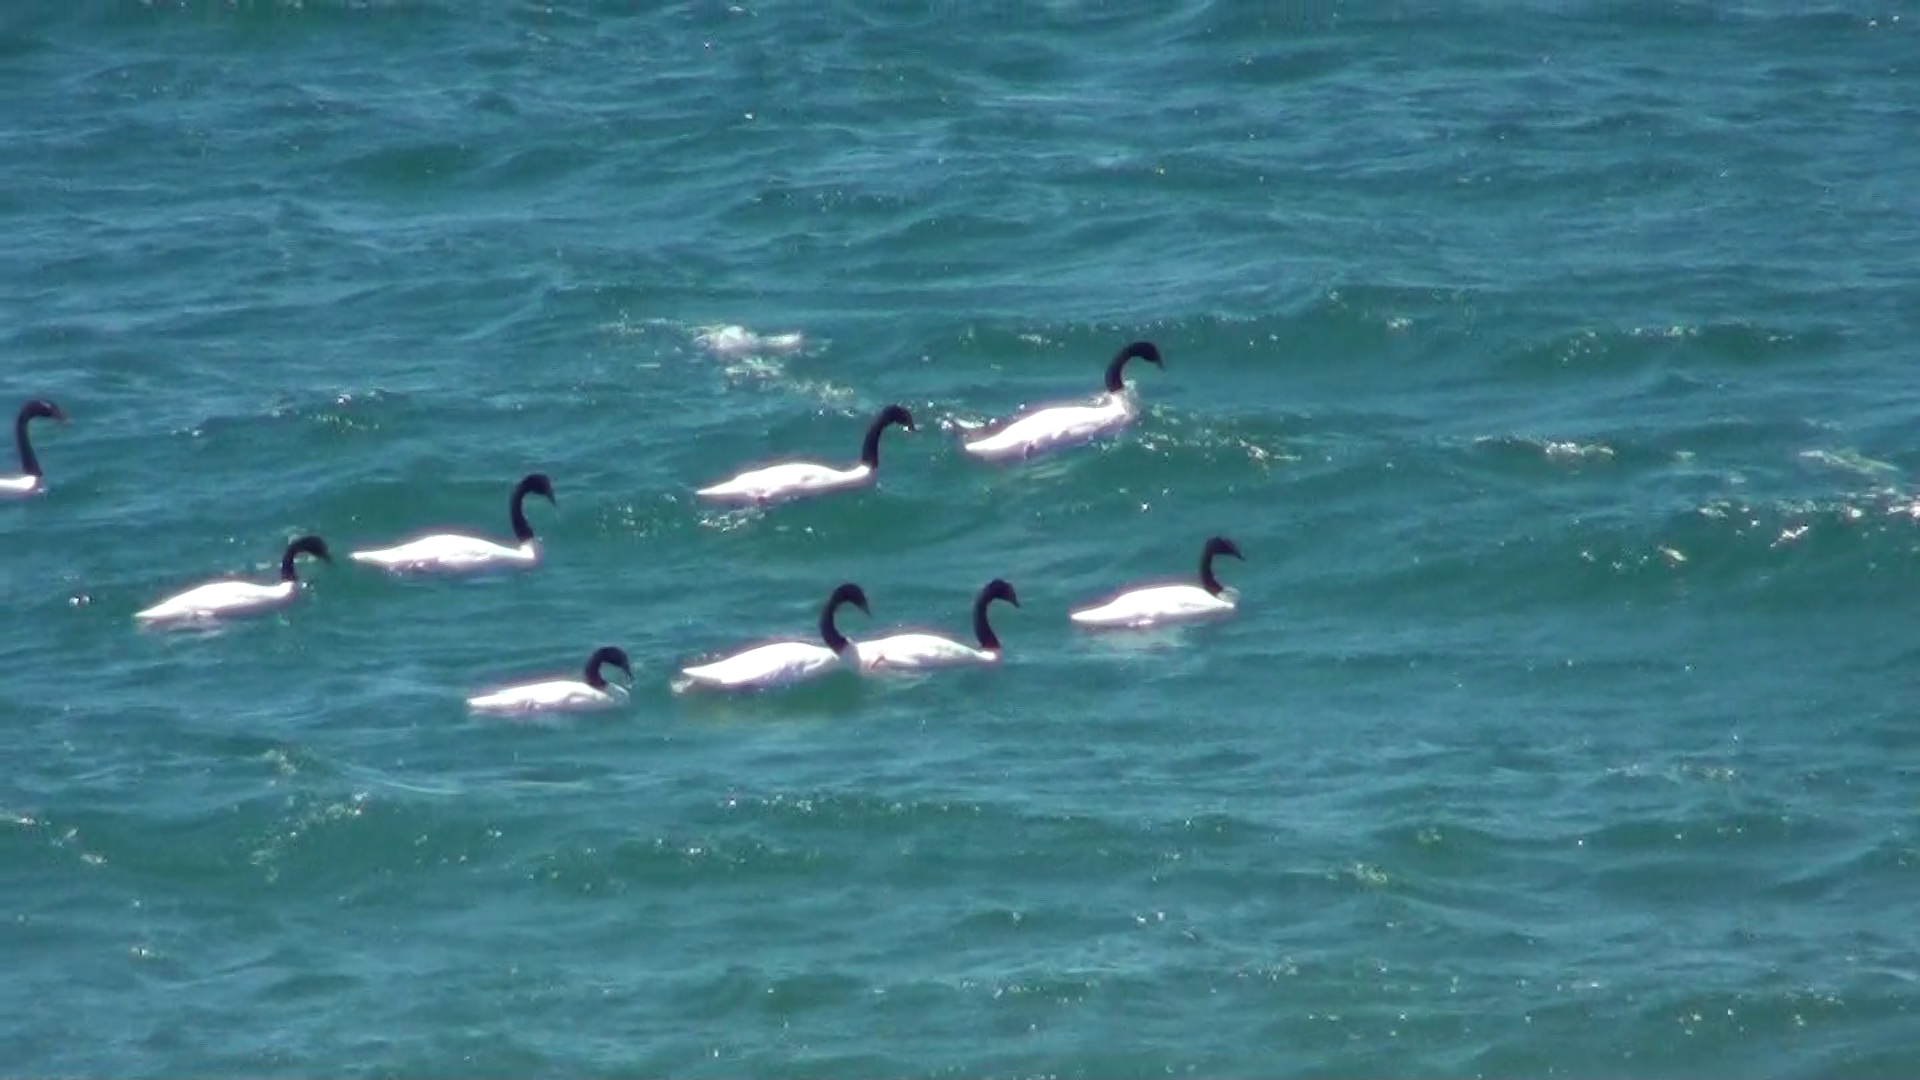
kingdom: Animalia
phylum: Chordata
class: Aves
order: Anseriformes
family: Anatidae
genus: Cygnus
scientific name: Cygnus melancoryphus
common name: Black-necked swan
